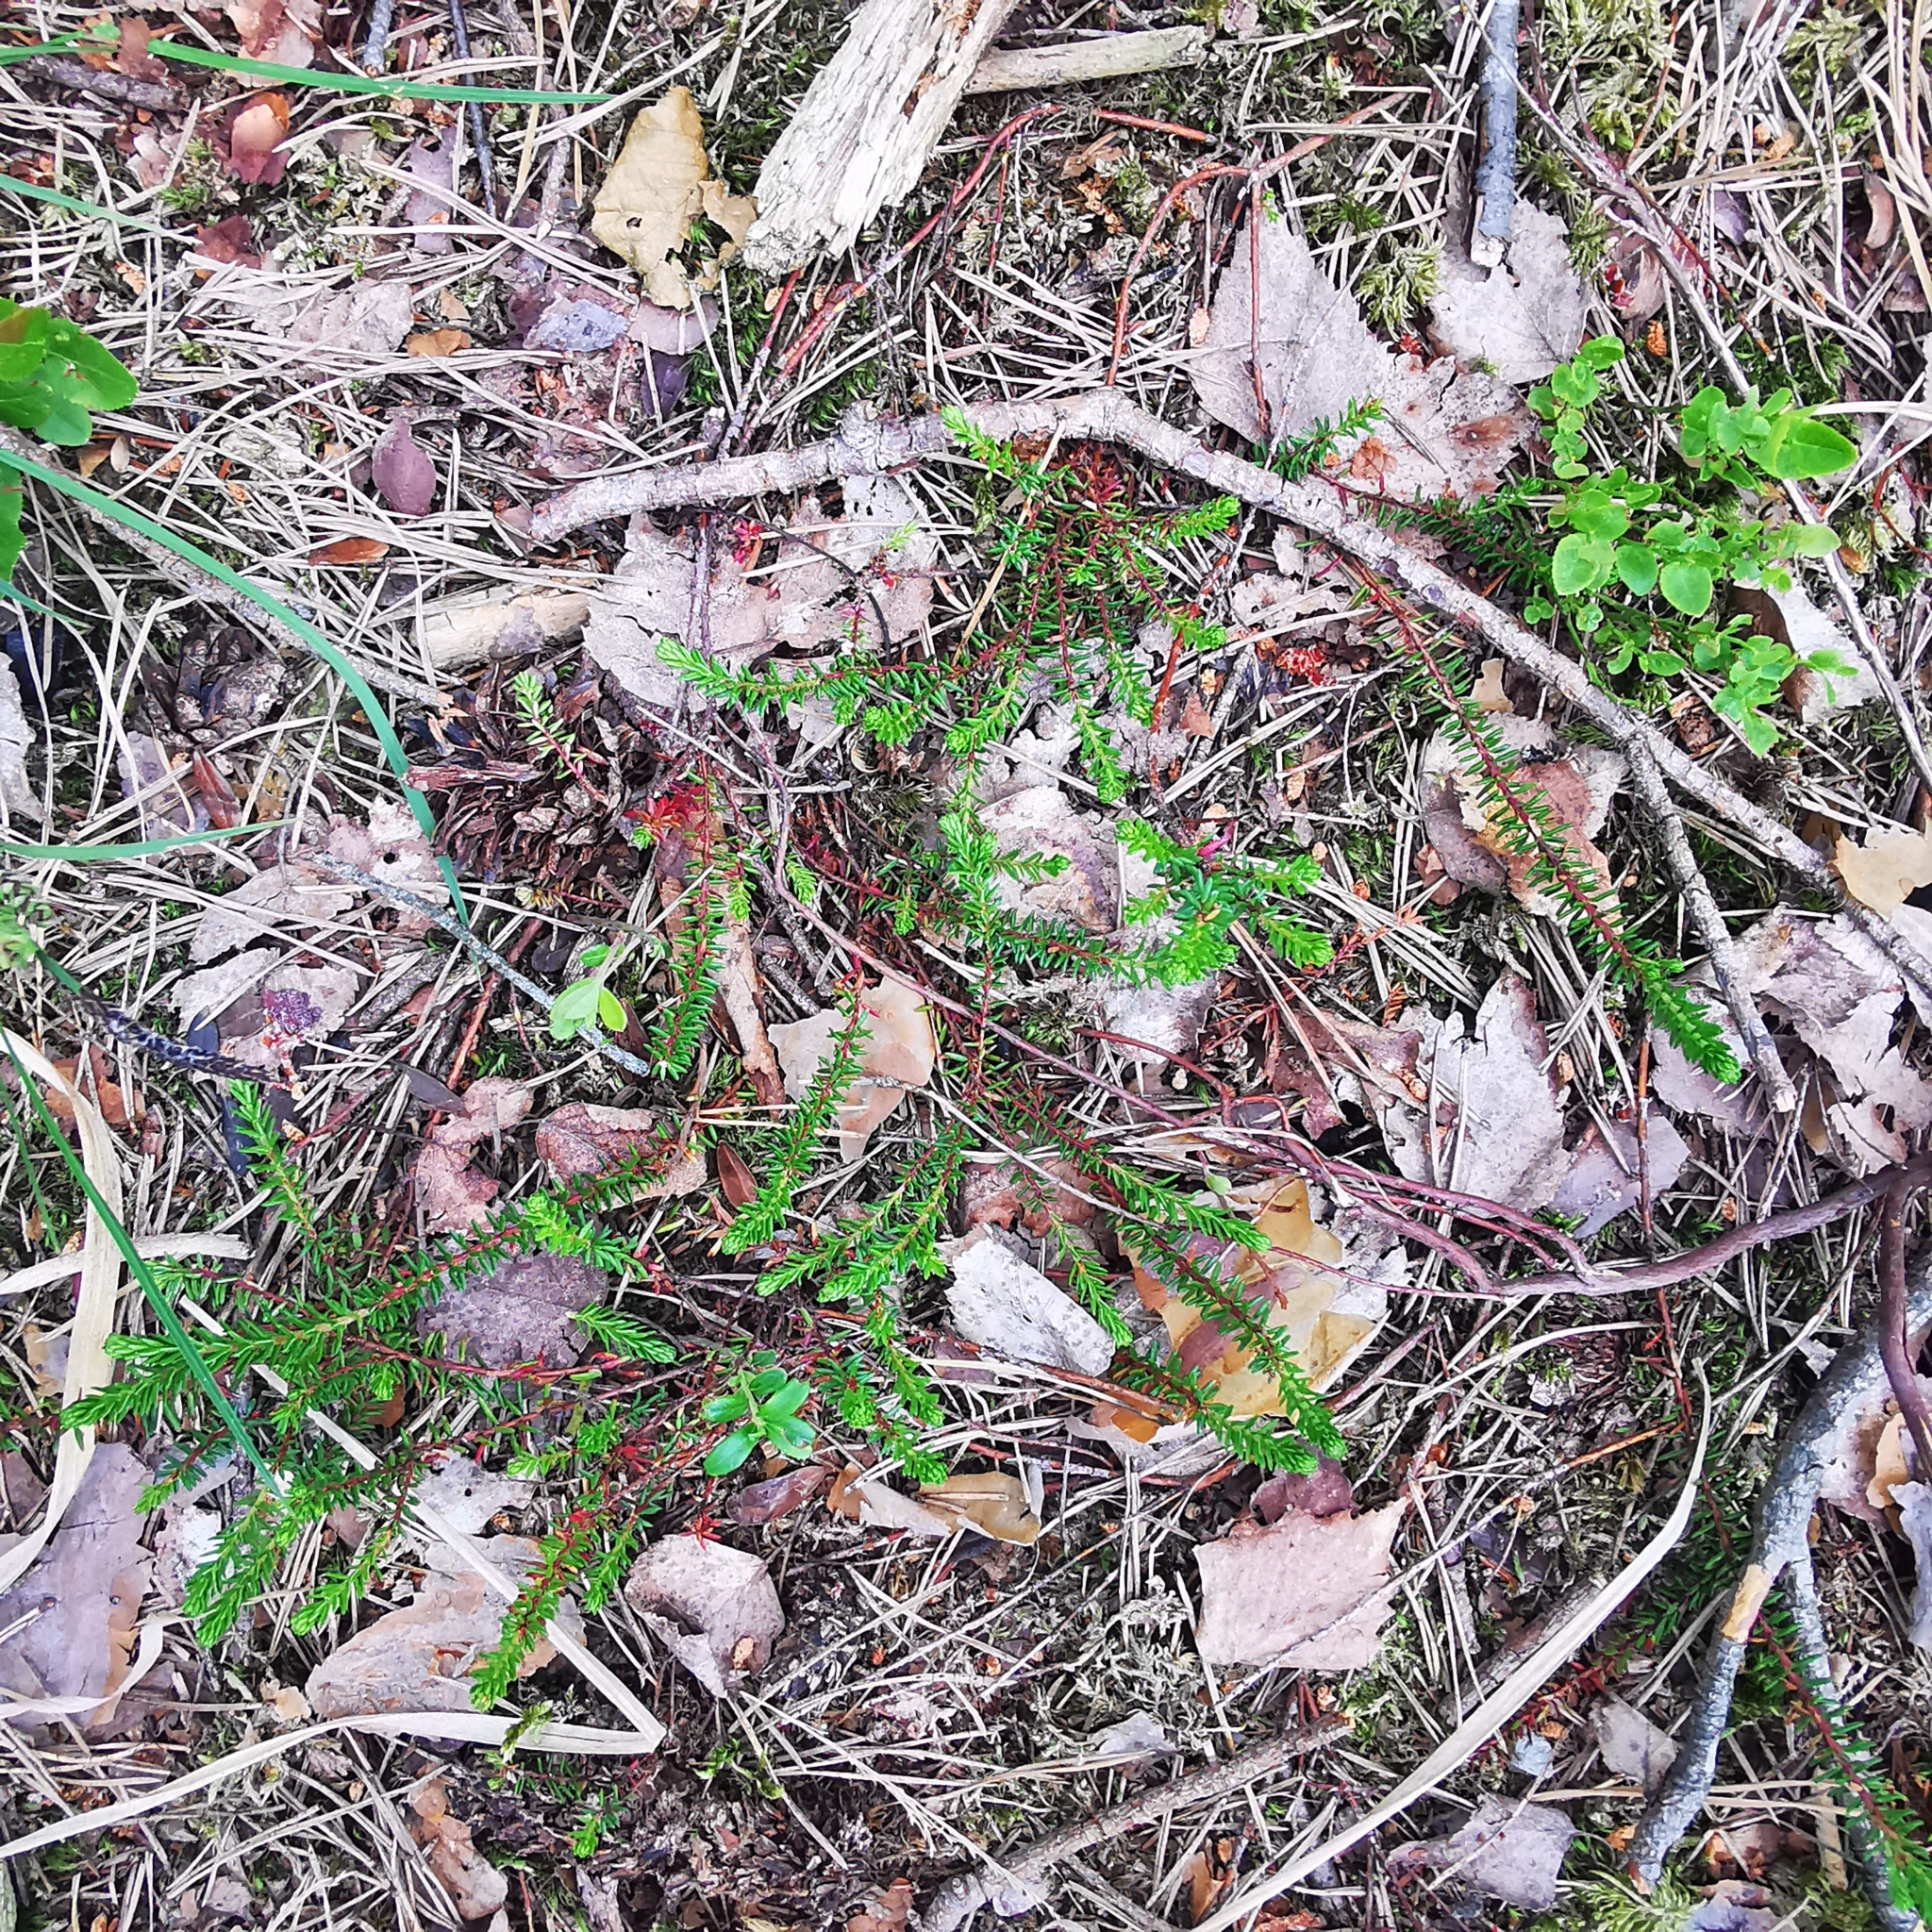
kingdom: Plantae
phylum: Tracheophyta
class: Magnoliopsida
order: Ericales
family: Ericaceae
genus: Empetrum
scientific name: Empetrum nigrum
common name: Black crowberry
